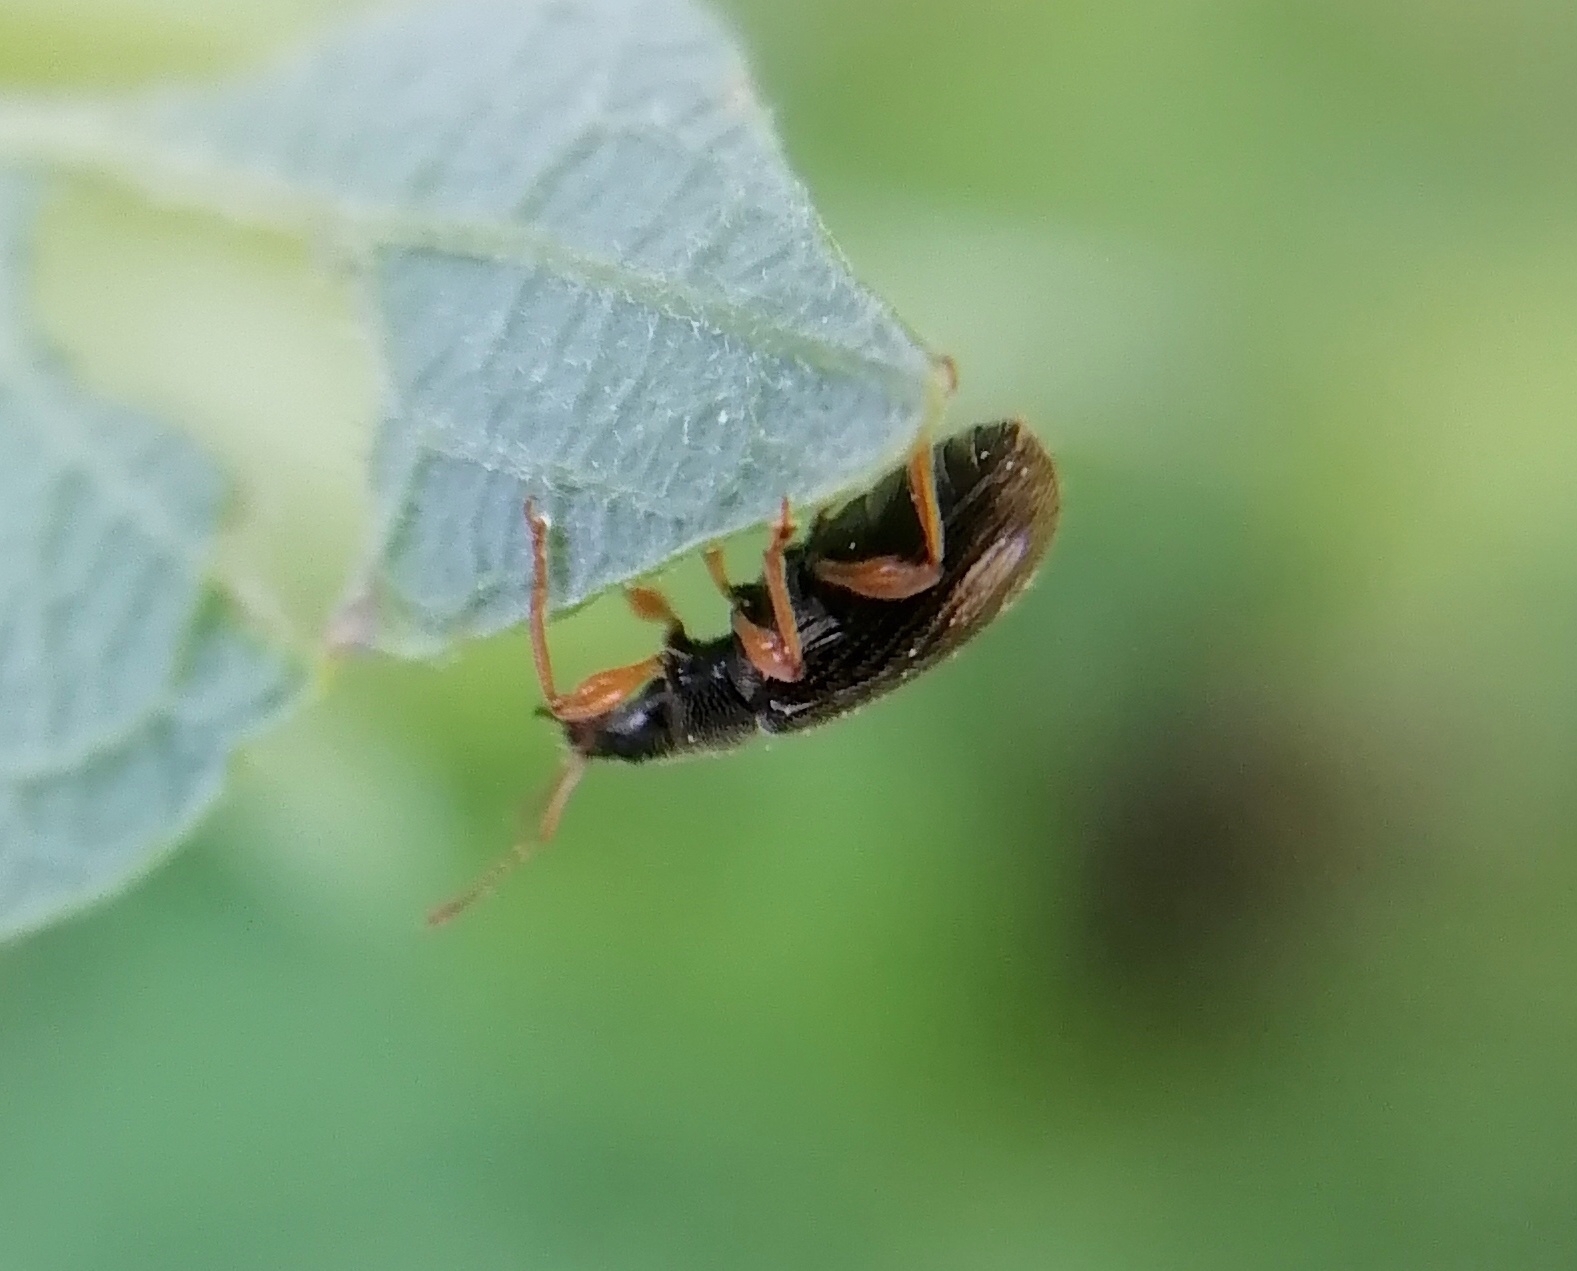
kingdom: Animalia
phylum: Arthropoda
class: Insecta
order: Coleoptera
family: Curculionidae
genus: Phyllobius
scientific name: Phyllobius oblongus
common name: Brown leaf weevil
